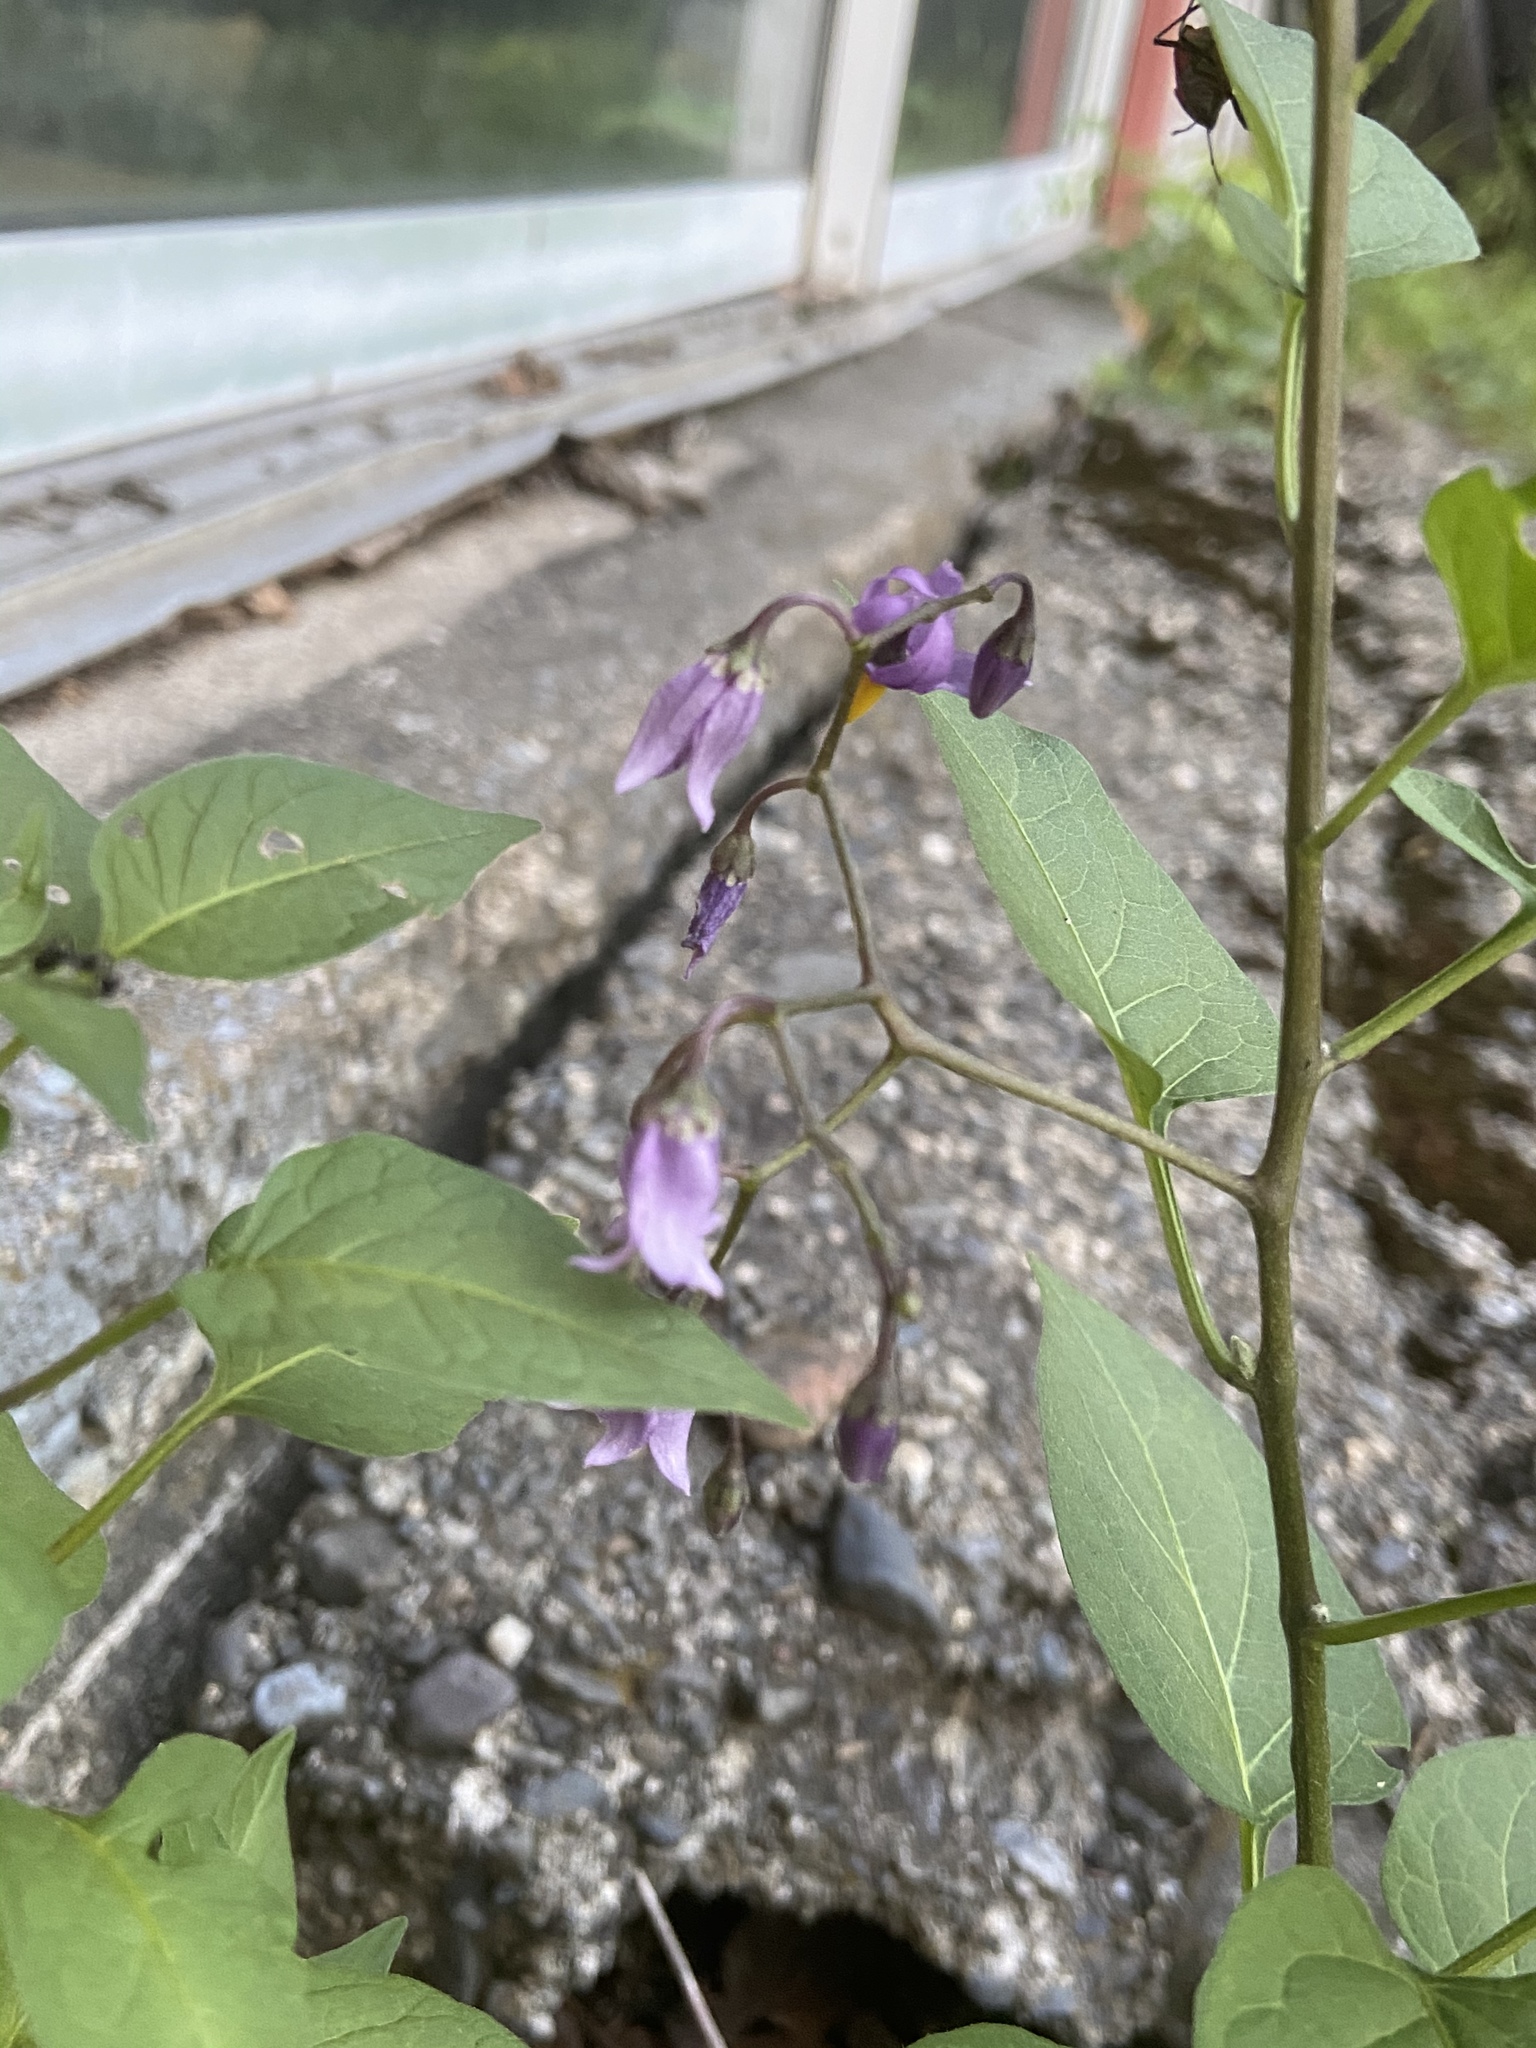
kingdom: Plantae
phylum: Tracheophyta
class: Magnoliopsida
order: Solanales
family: Solanaceae
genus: Solanum
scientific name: Solanum dulcamara
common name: Climbing nightshade
